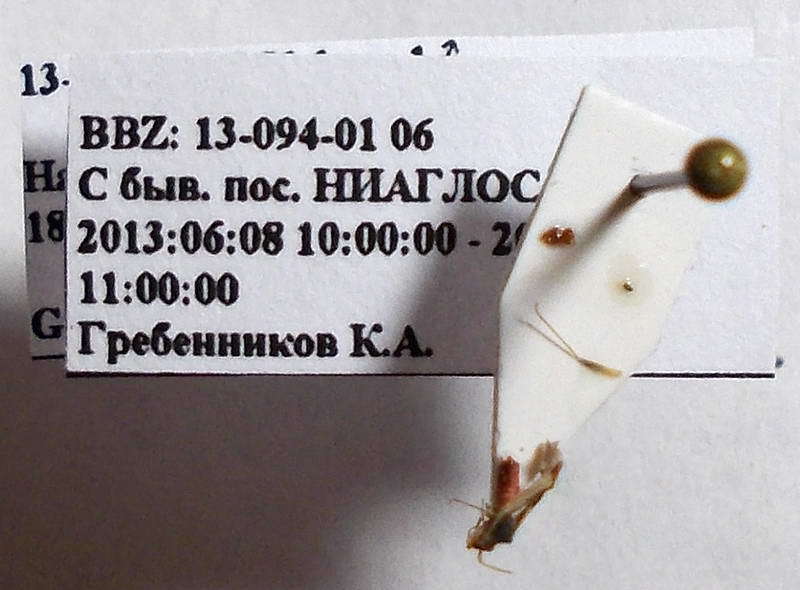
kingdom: Animalia
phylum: Arthropoda
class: Insecta
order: Hemiptera
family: Miridae
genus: Hallodapus
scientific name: Hallodapus suturalis
